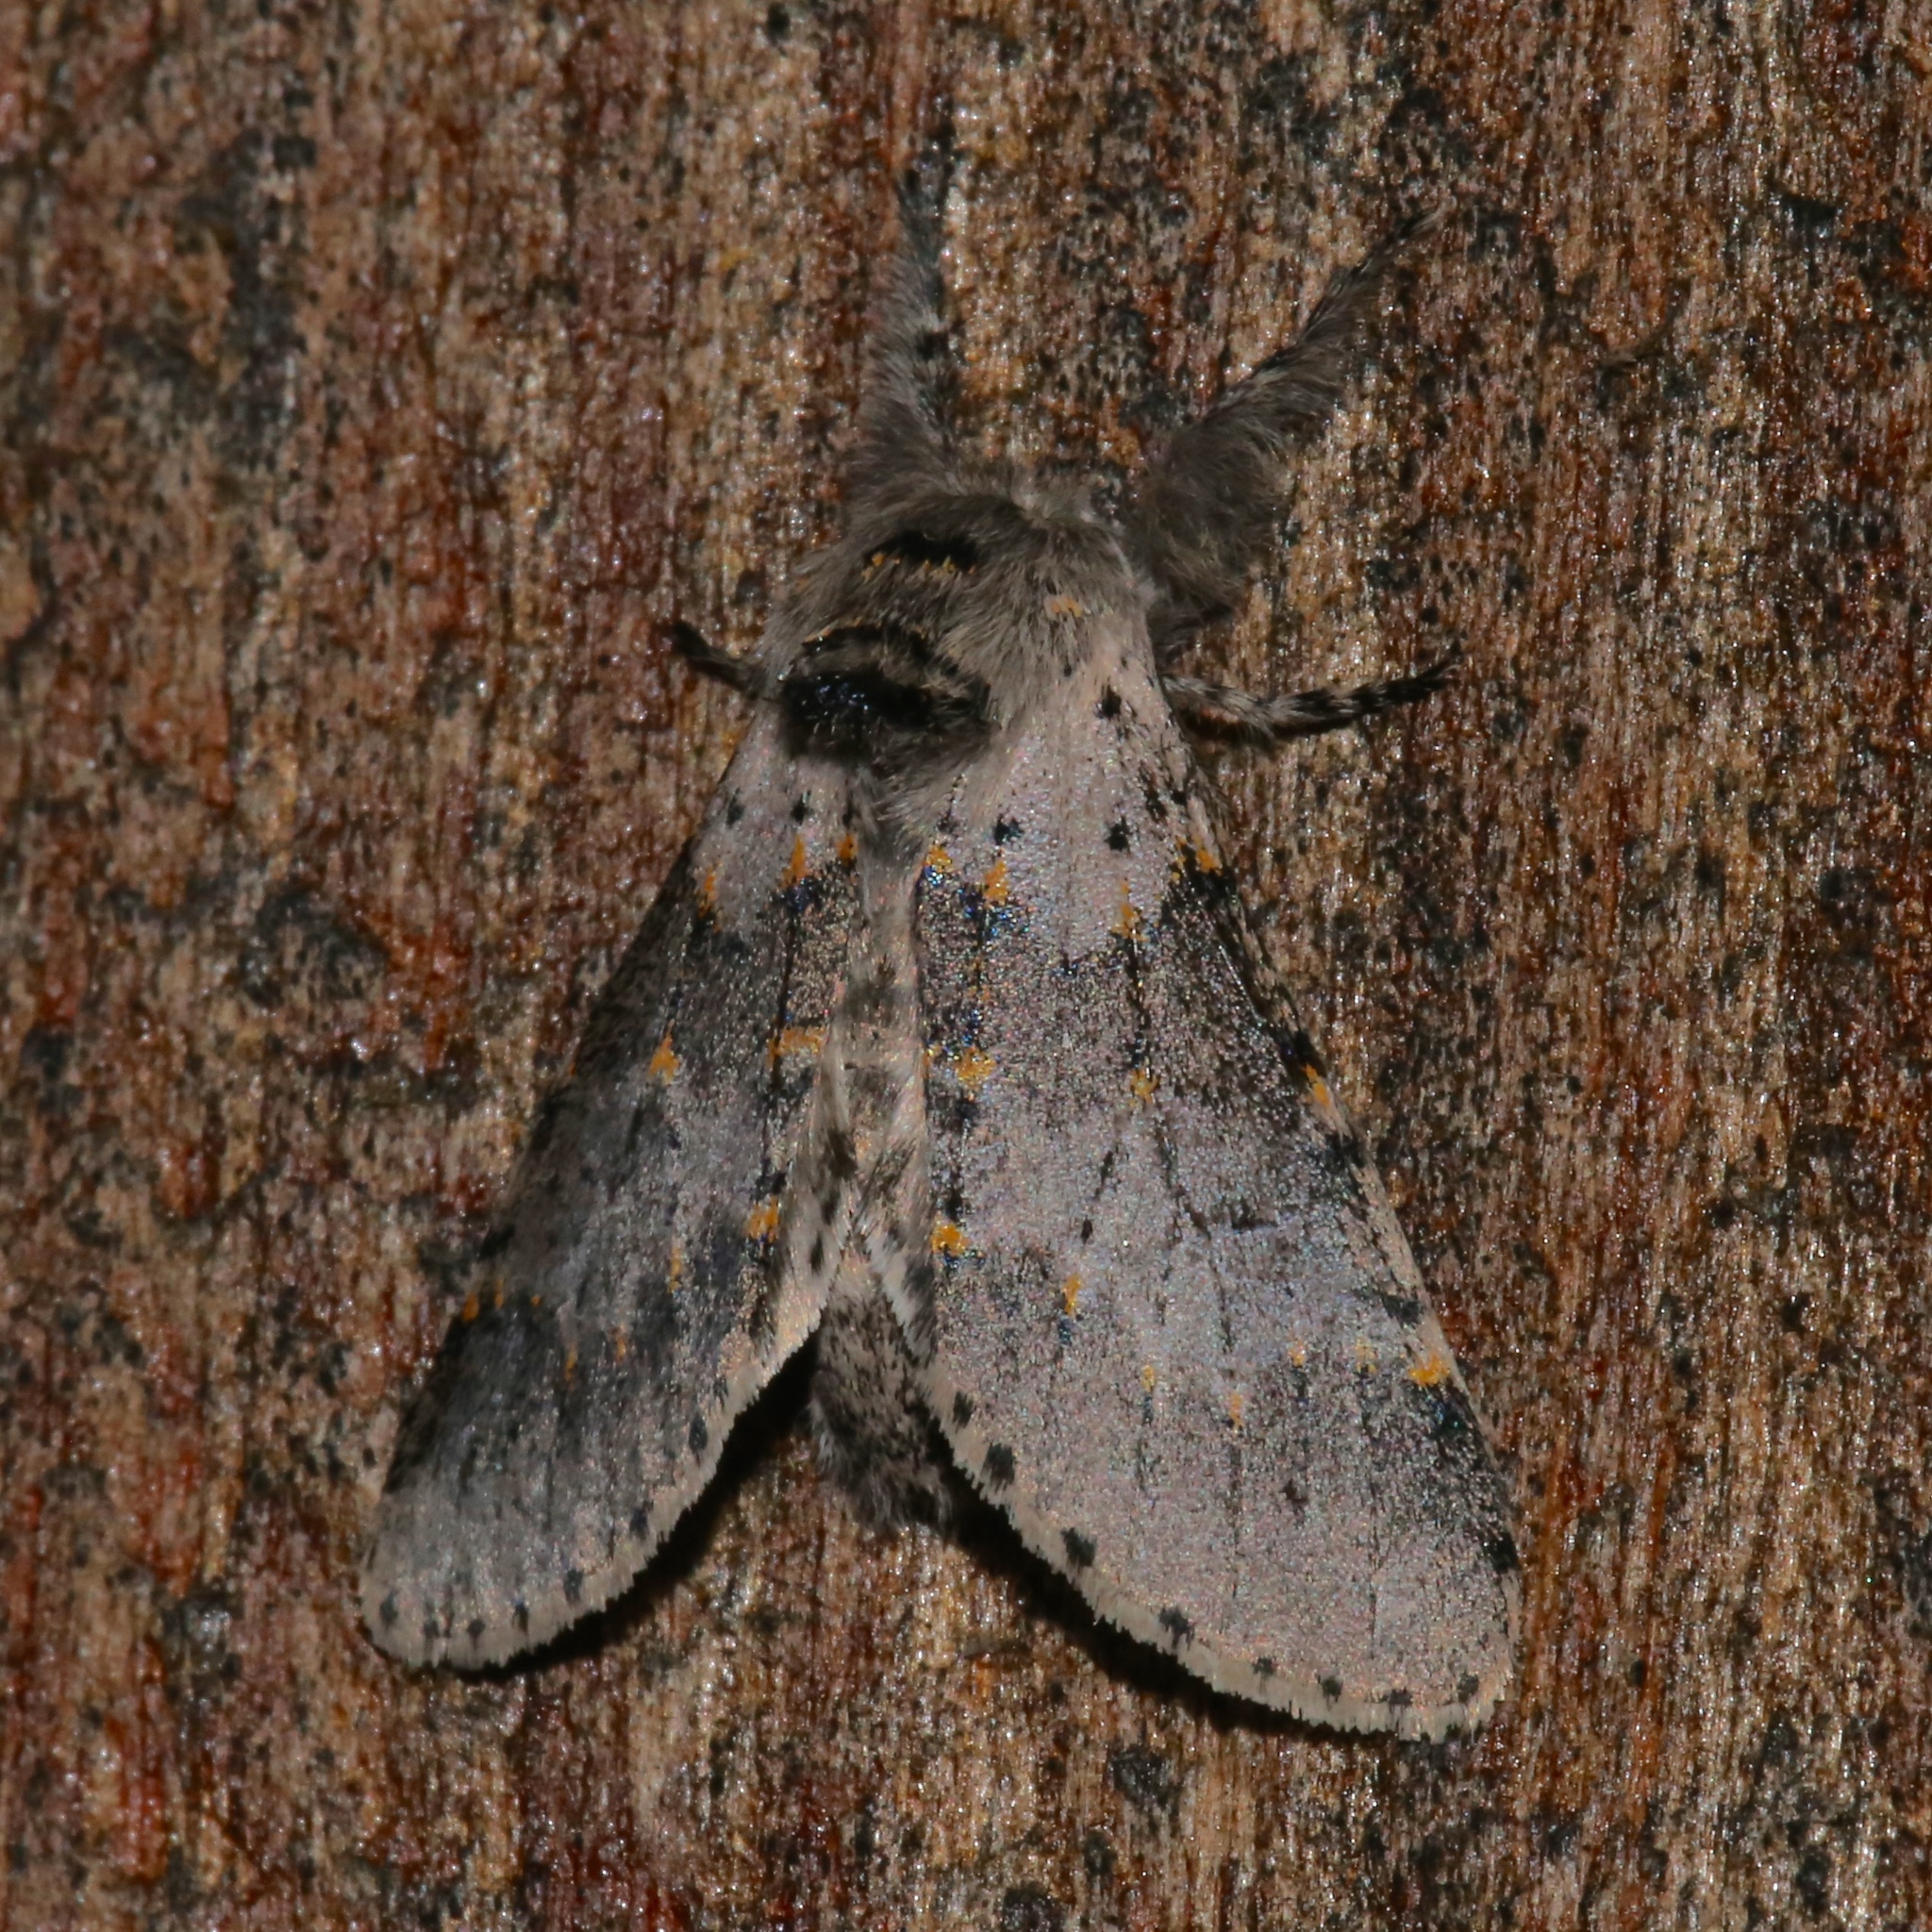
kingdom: Animalia
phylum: Arthropoda
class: Insecta
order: Lepidoptera
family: Notodontidae
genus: Furcula
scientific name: Furcula cinerea
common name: Gray furcula
